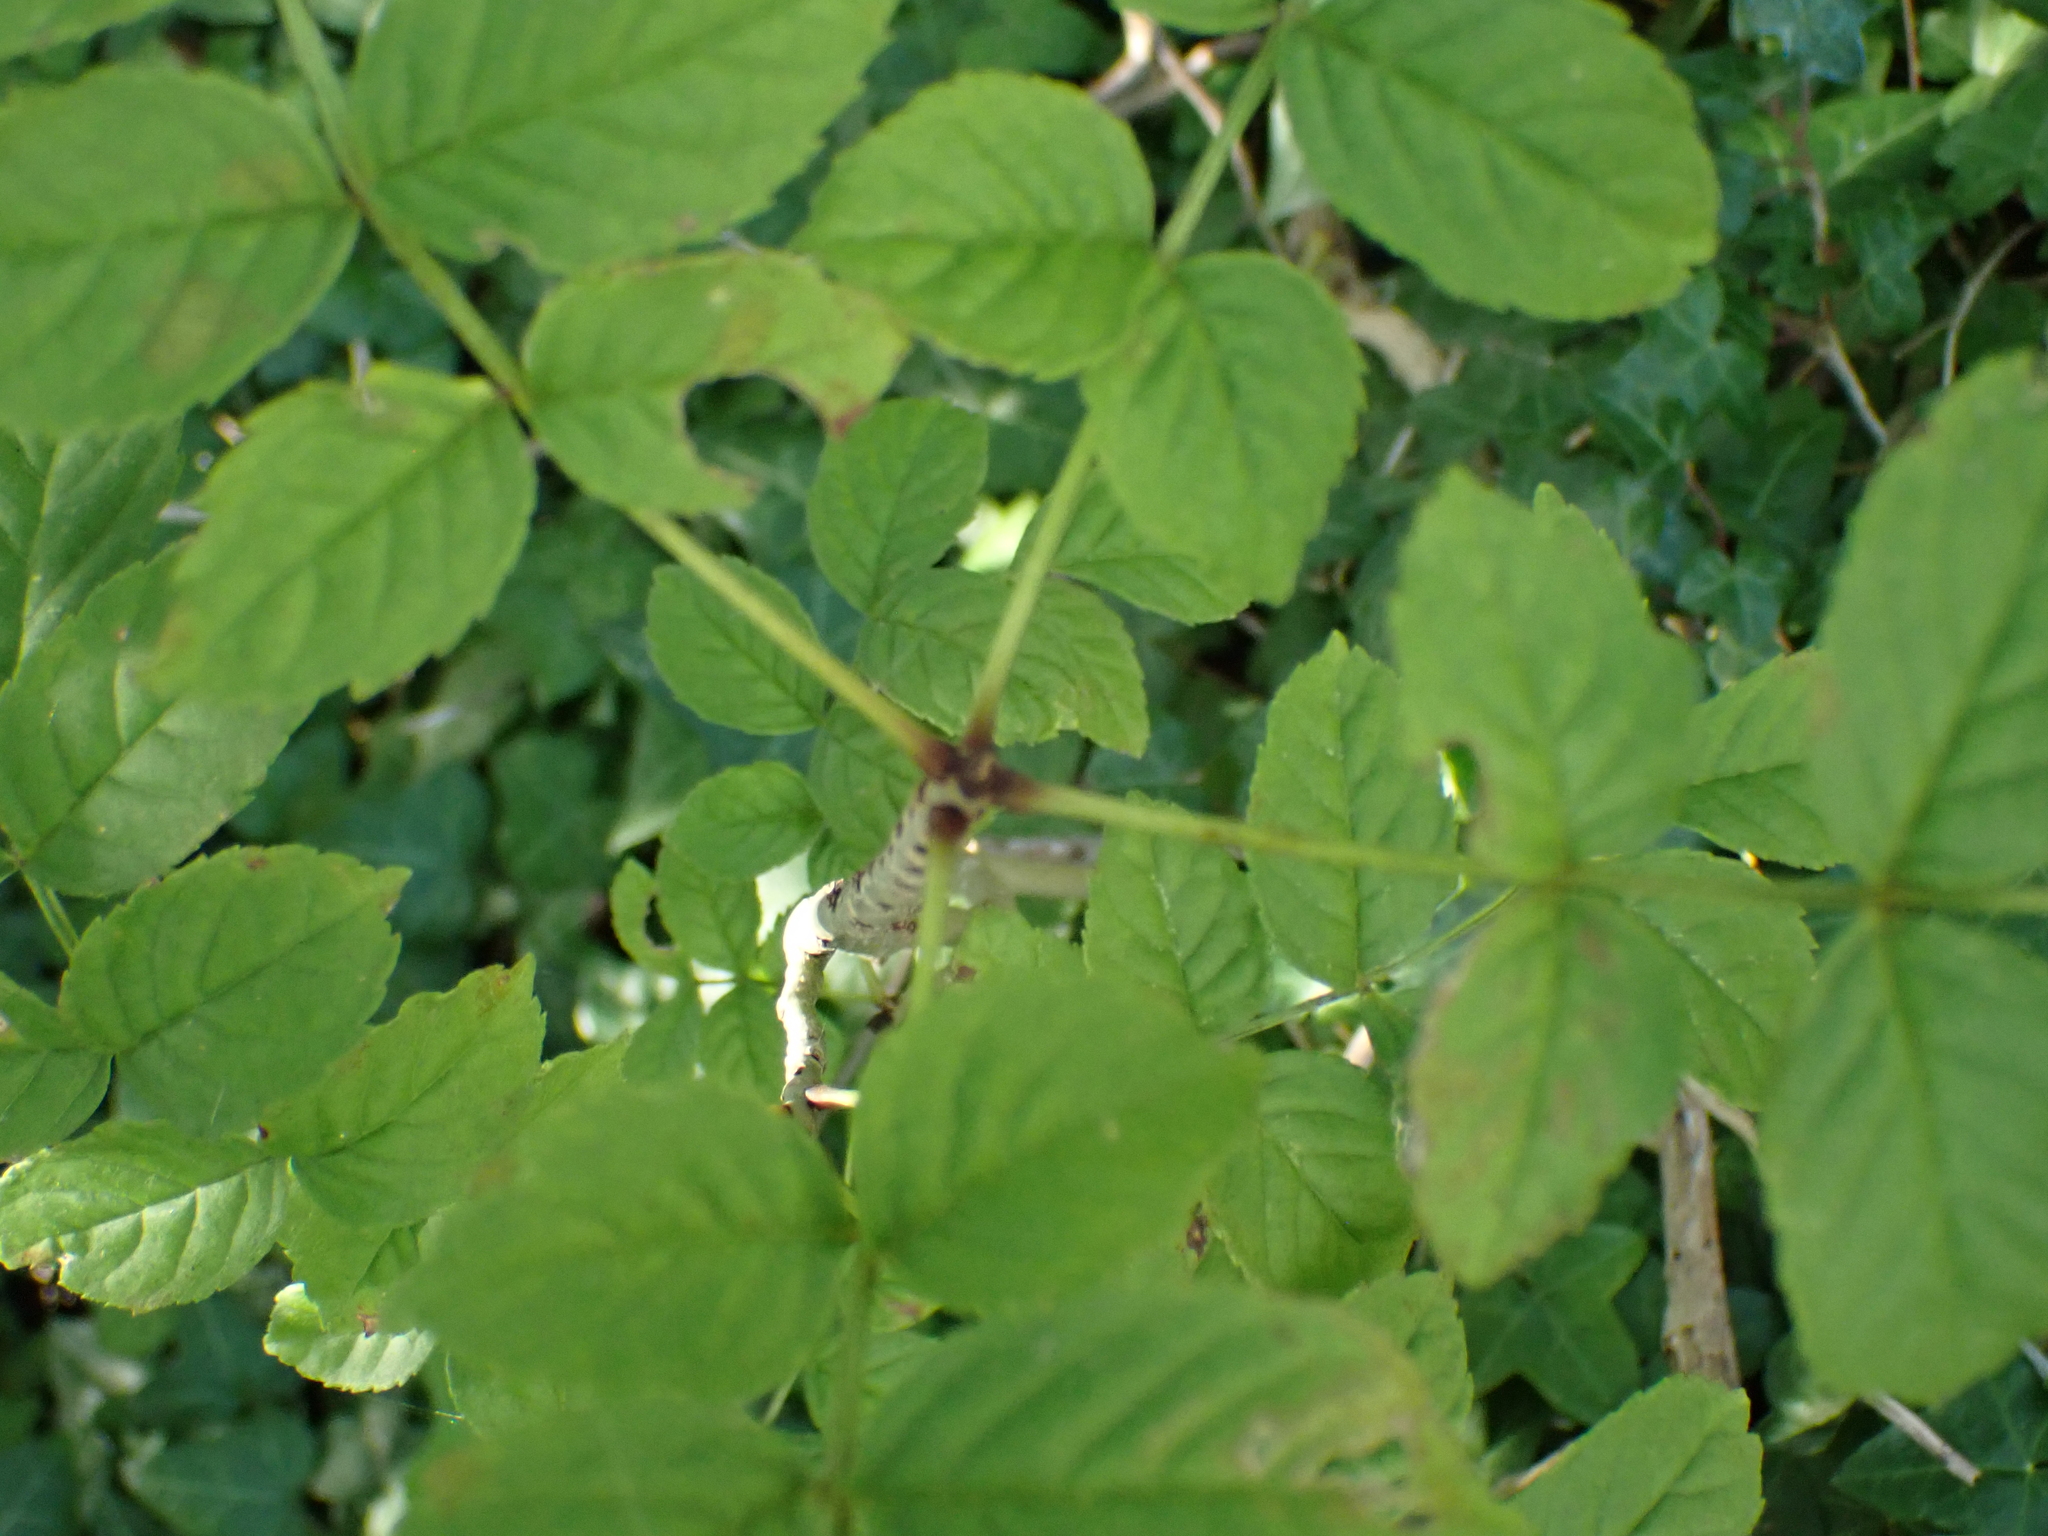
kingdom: Plantae
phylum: Tracheophyta
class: Magnoliopsida
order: Lamiales
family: Oleaceae
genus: Fraxinus
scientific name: Fraxinus excelsior
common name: European ash
